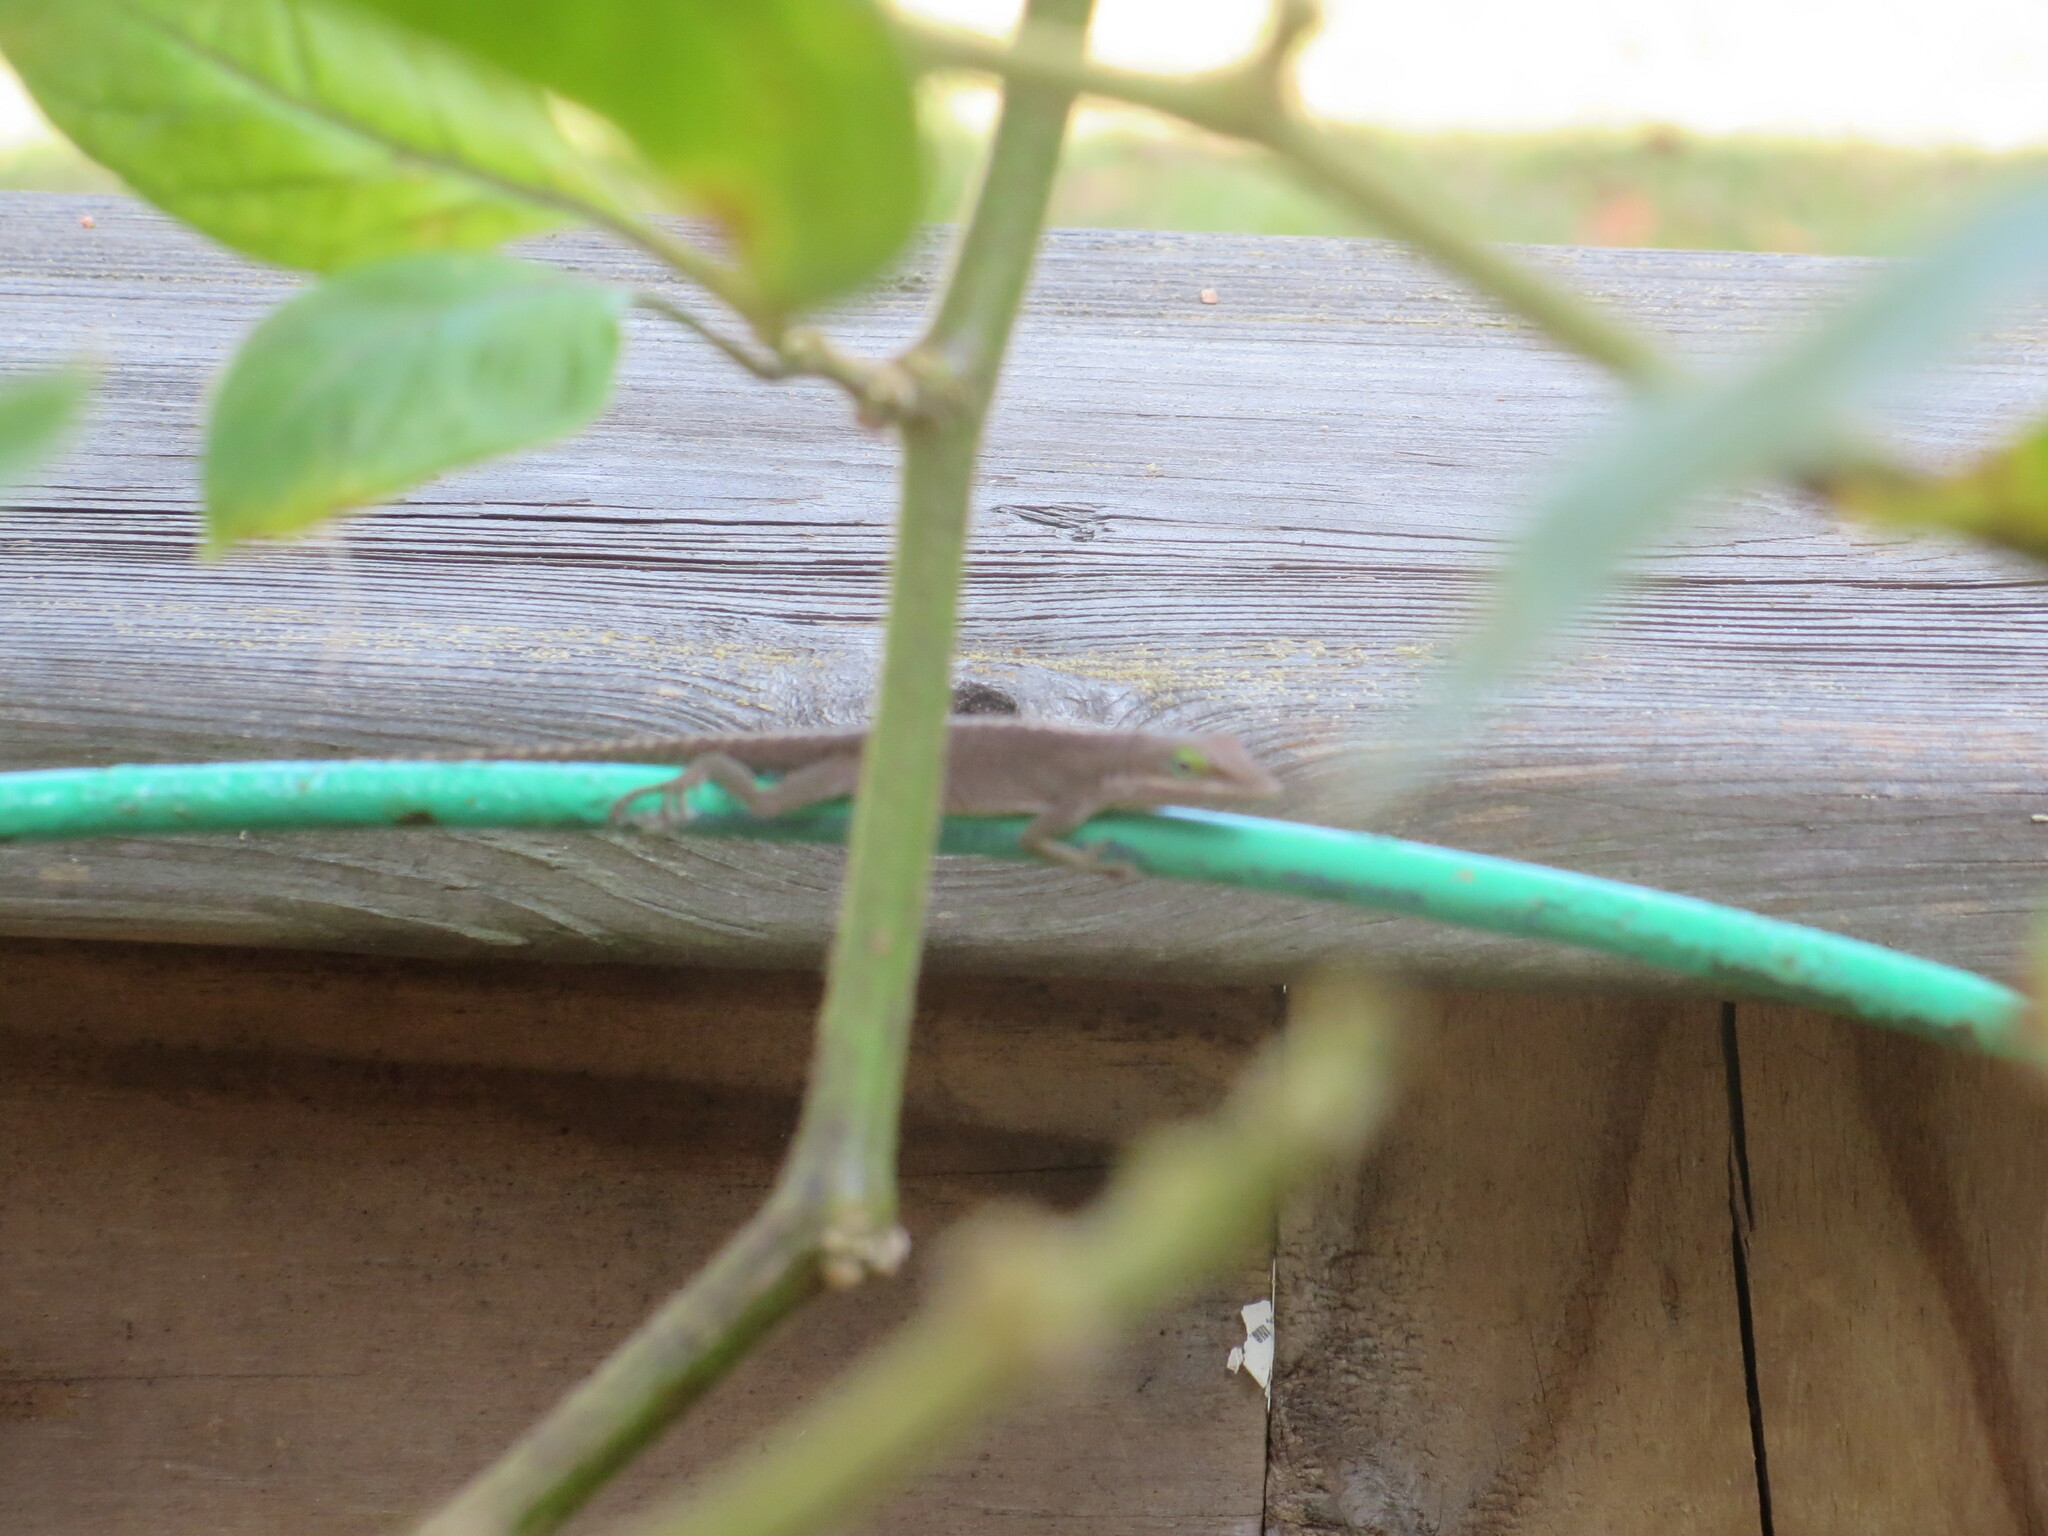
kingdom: Animalia
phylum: Chordata
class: Squamata
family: Dactyloidae
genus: Anolis
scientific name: Anolis carolinensis
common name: Green anole
